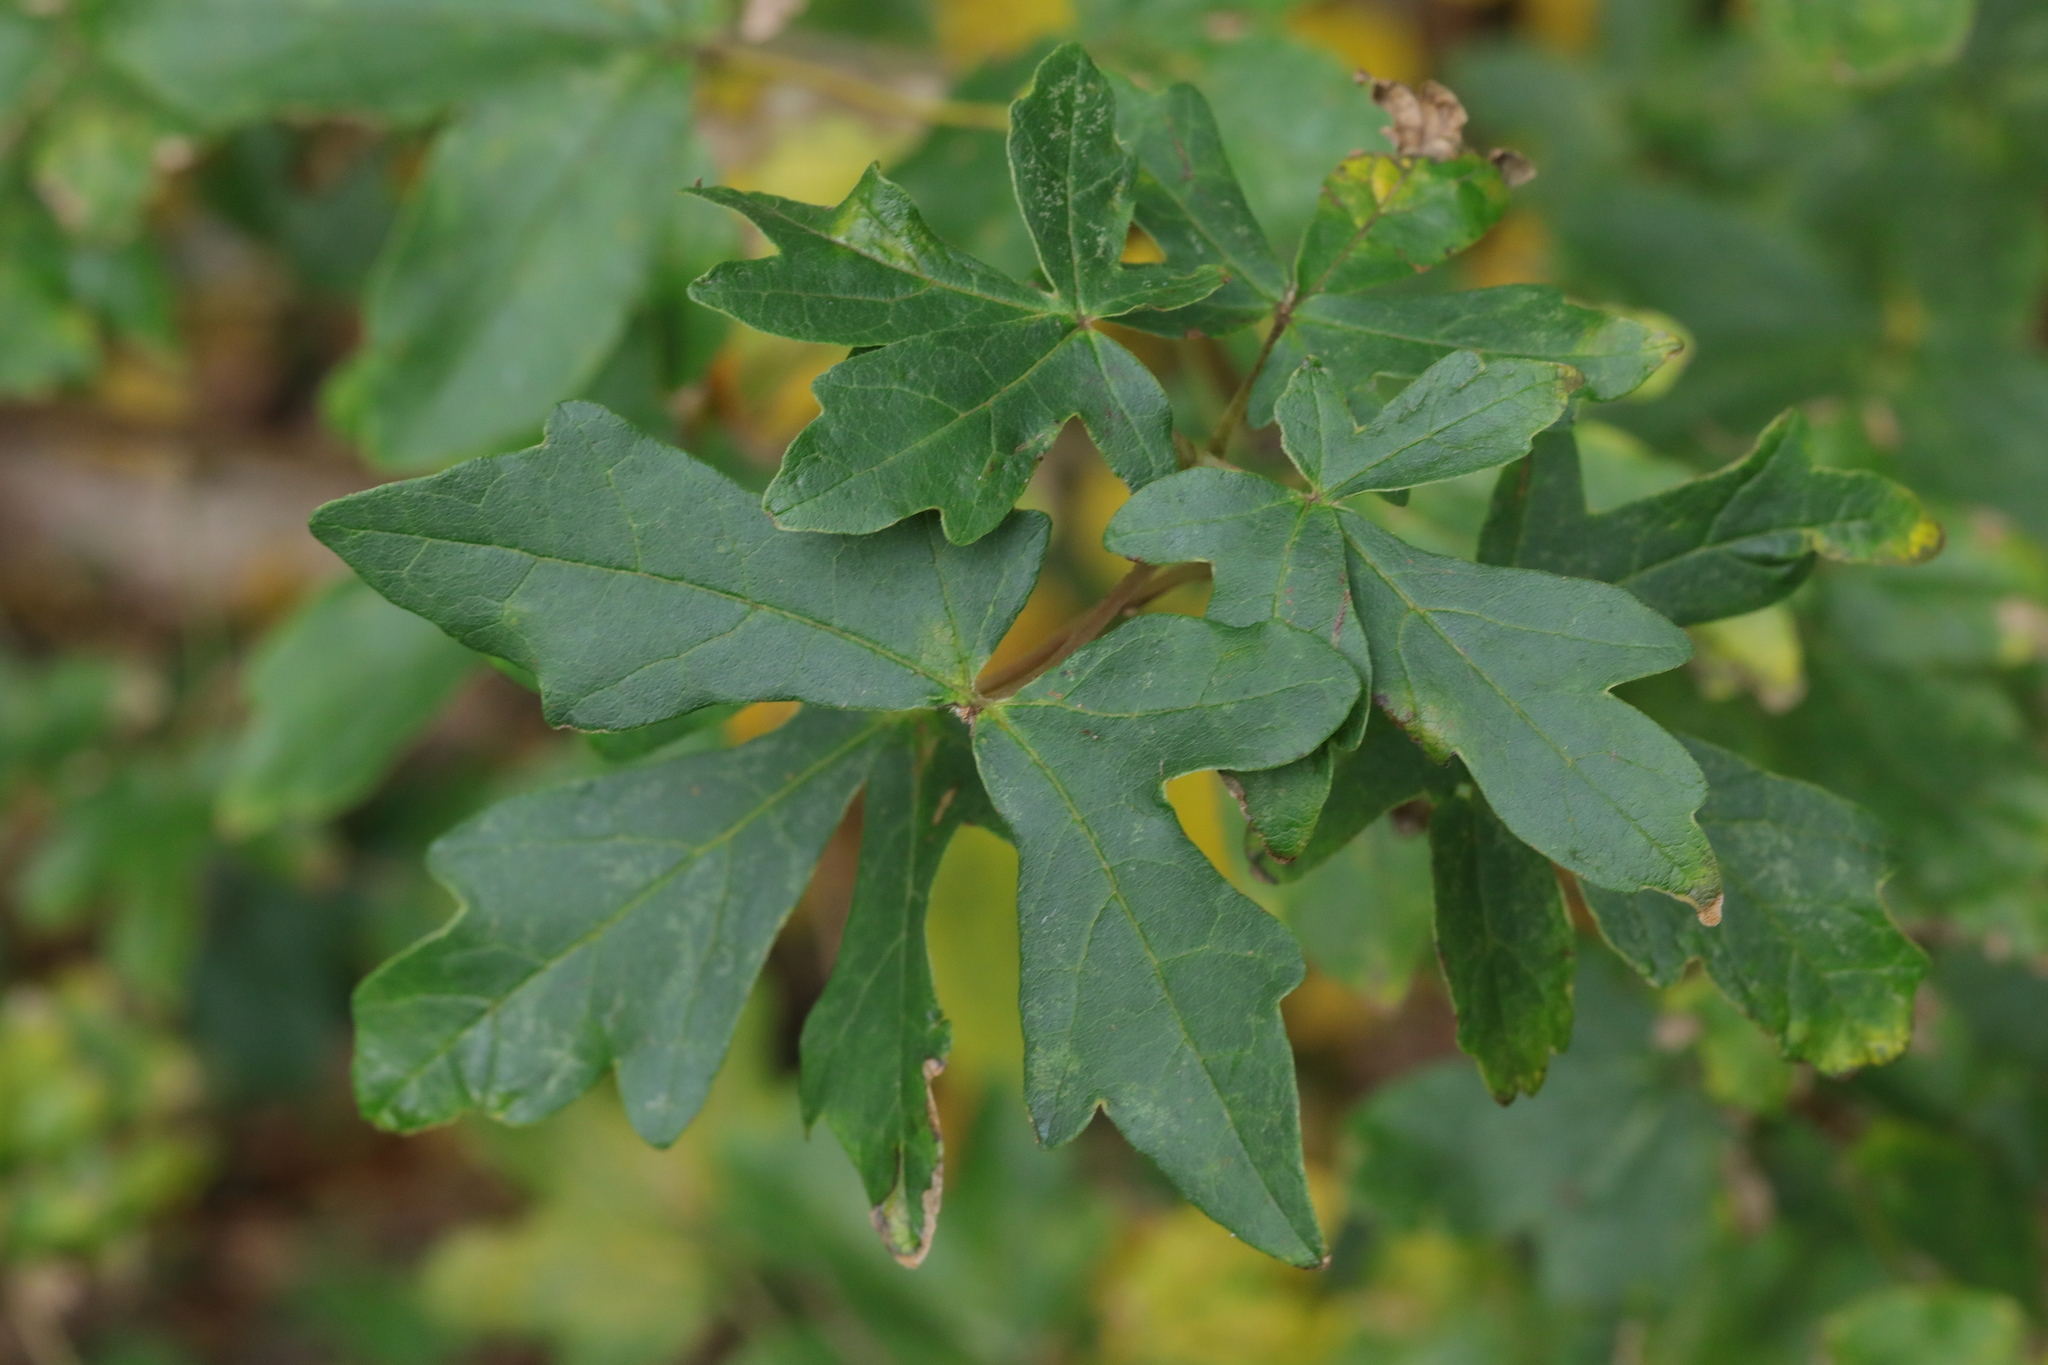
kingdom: Plantae
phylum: Tracheophyta
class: Magnoliopsida
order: Sapindales
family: Sapindaceae
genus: Acer
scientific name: Acer campestre
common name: Field maple
